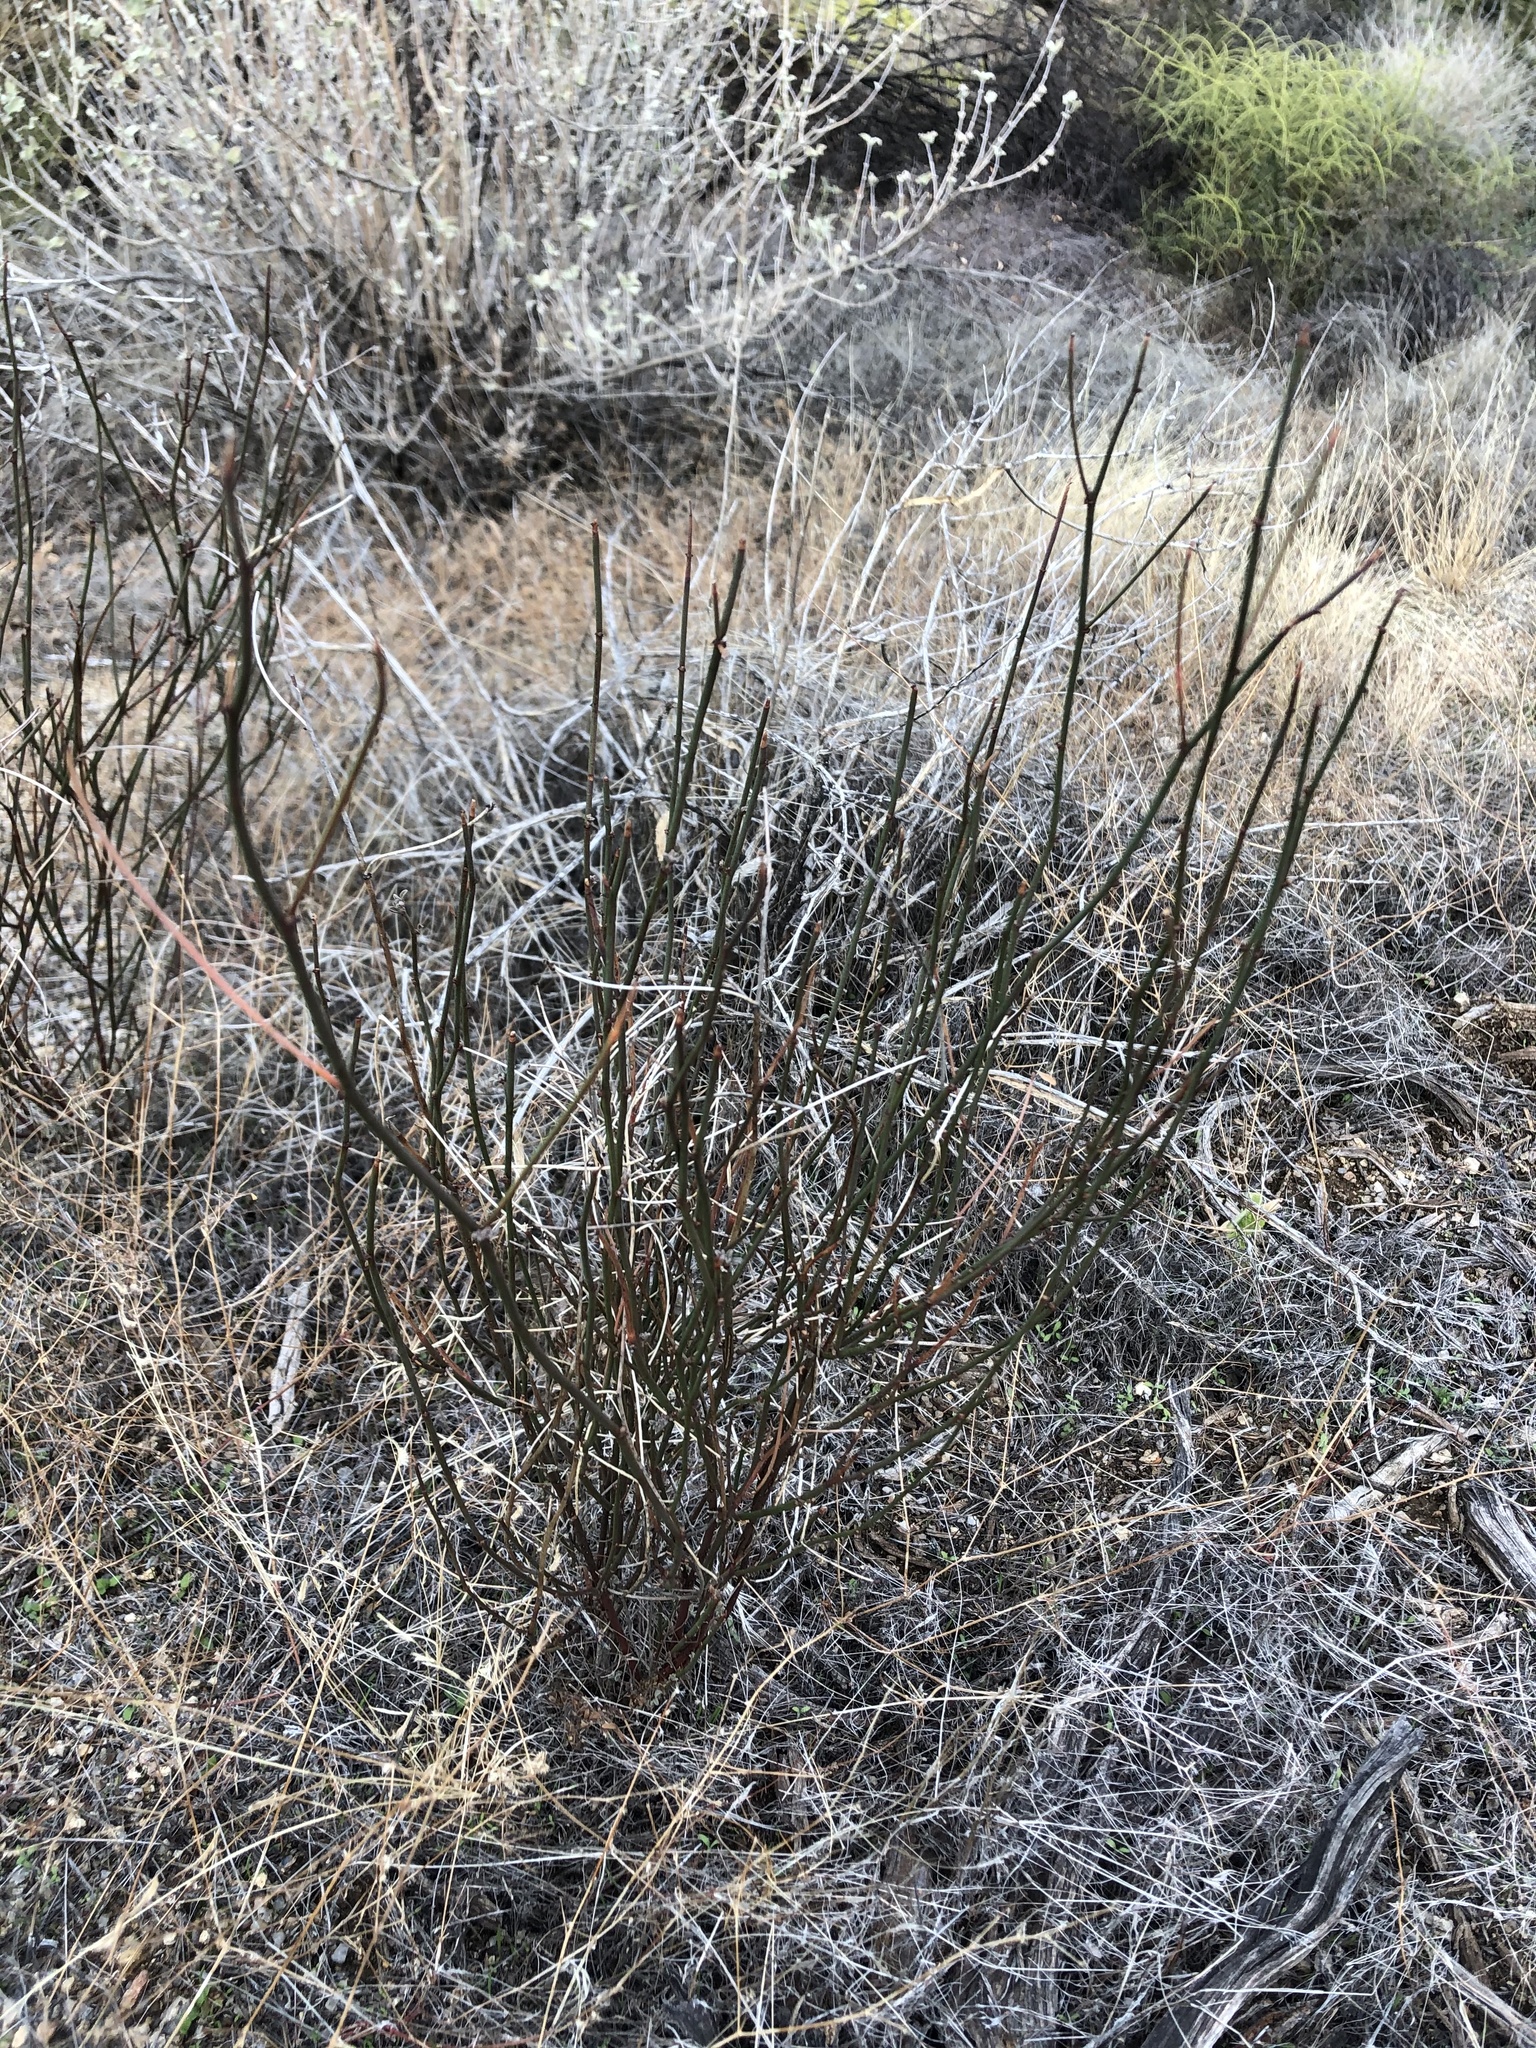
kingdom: Plantae
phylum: Tracheophyta
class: Magnoliopsida
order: Fabales
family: Fabaceae
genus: Acmispon
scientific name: Acmispon rigidus
